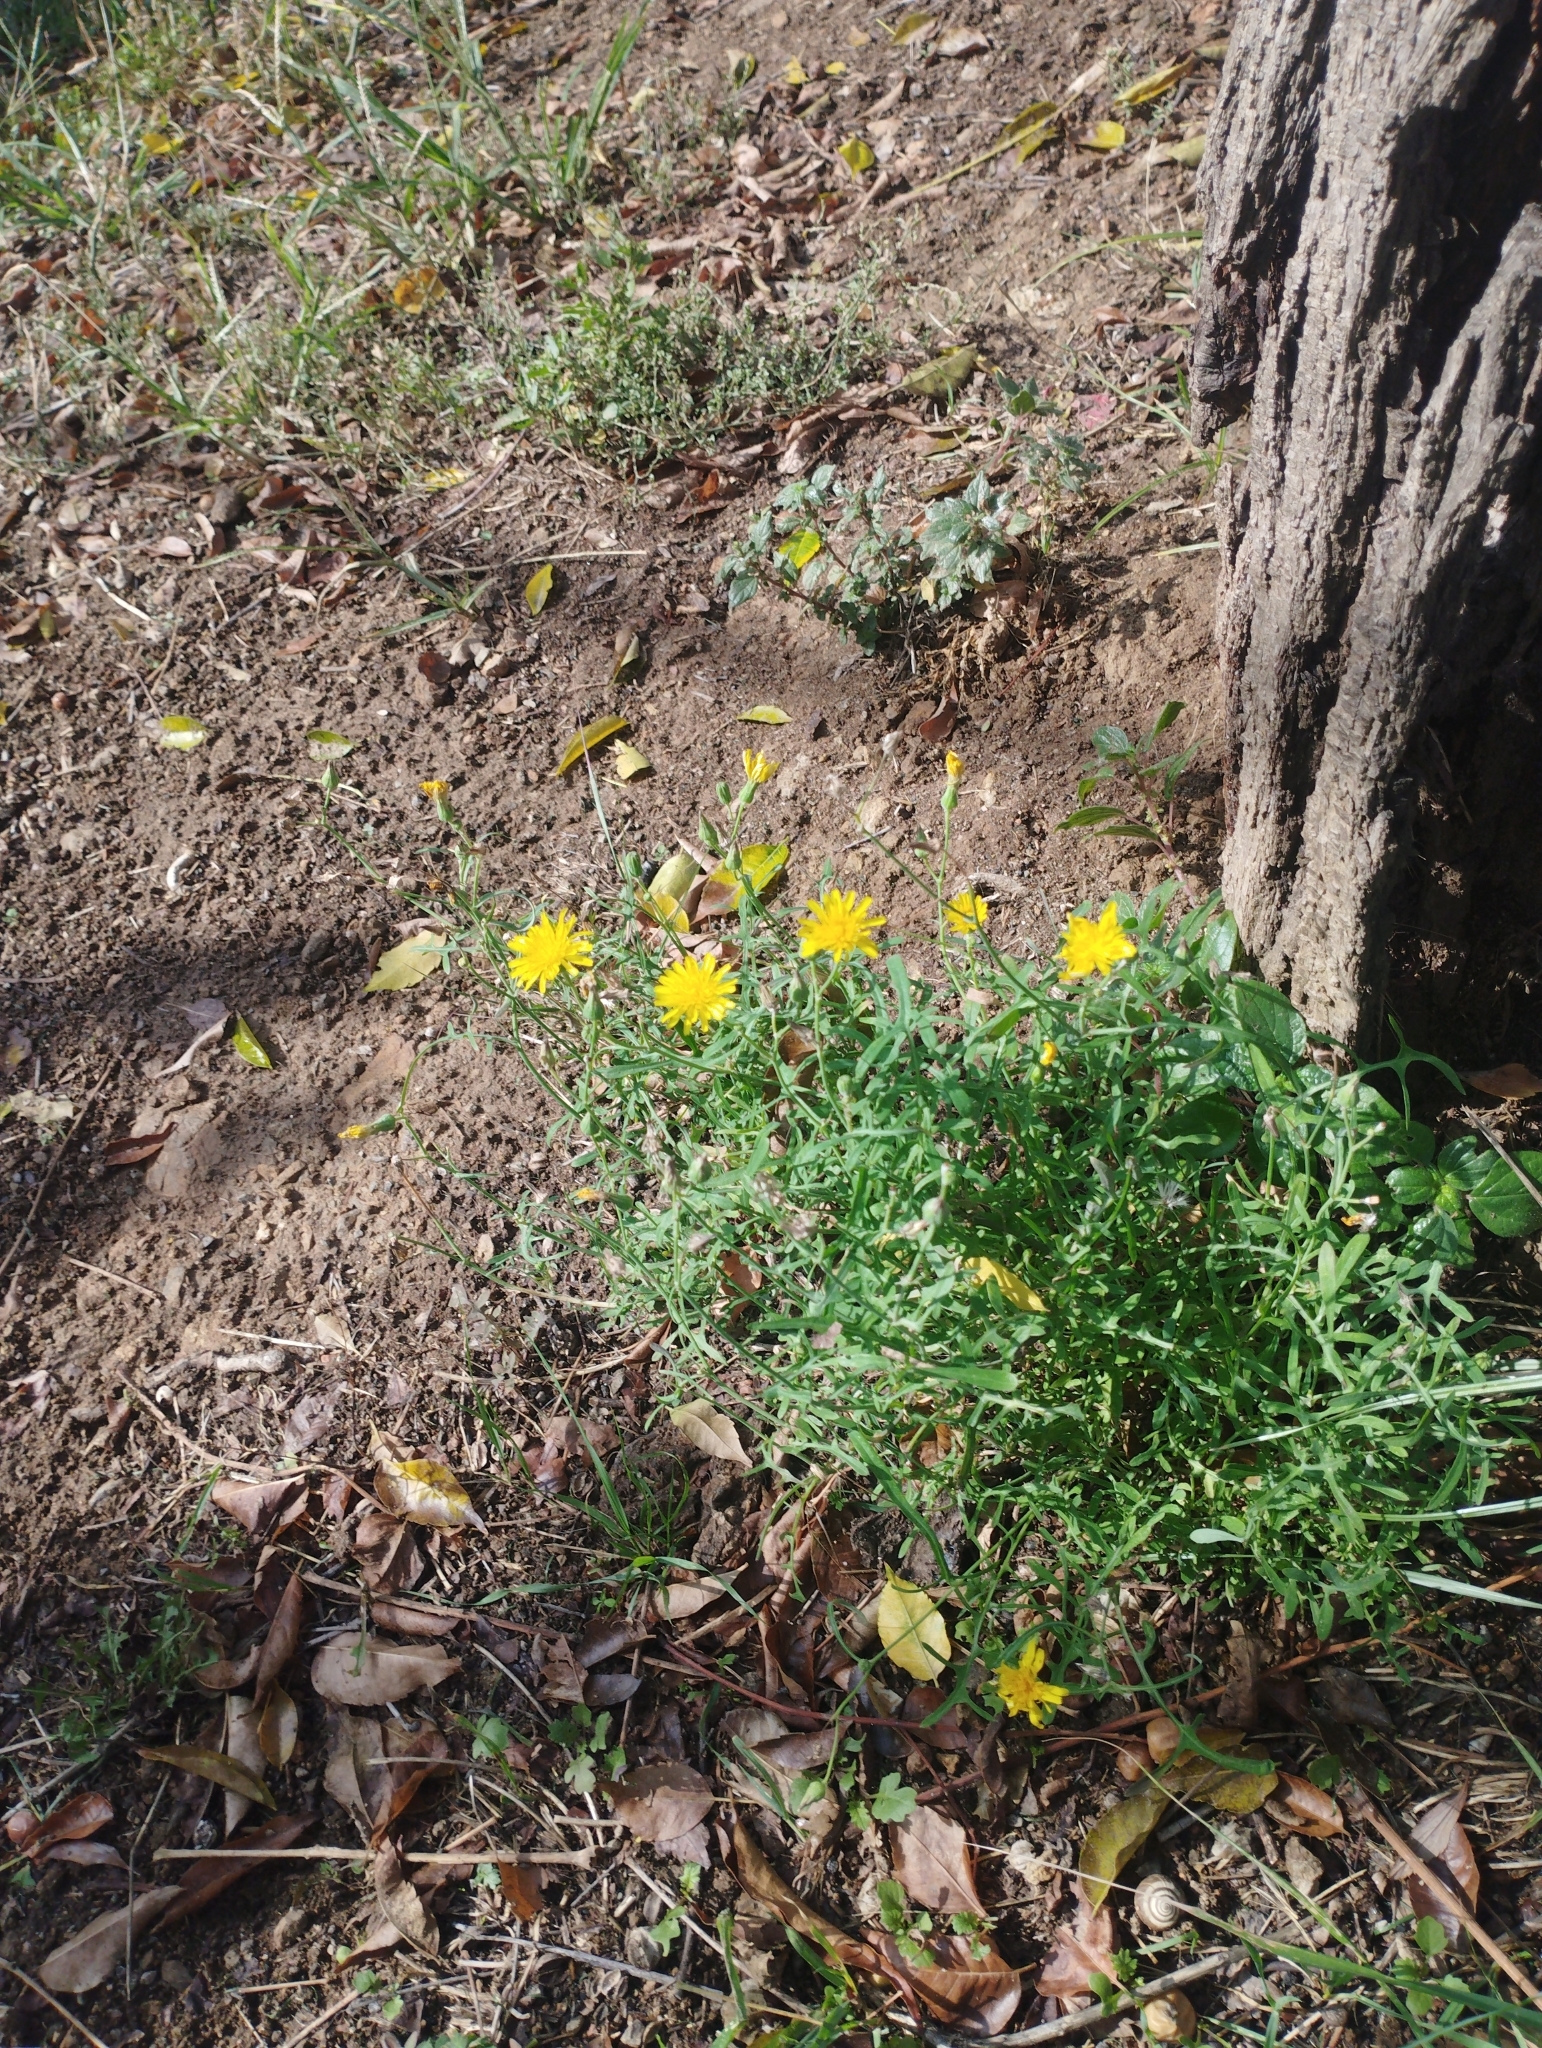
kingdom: Plantae
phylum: Tracheophyta
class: Magnoliopsida
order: Asterales
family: Asteraceae
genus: Sonchus
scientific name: Sonchus tenerrimus
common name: Clammy sowthistle
